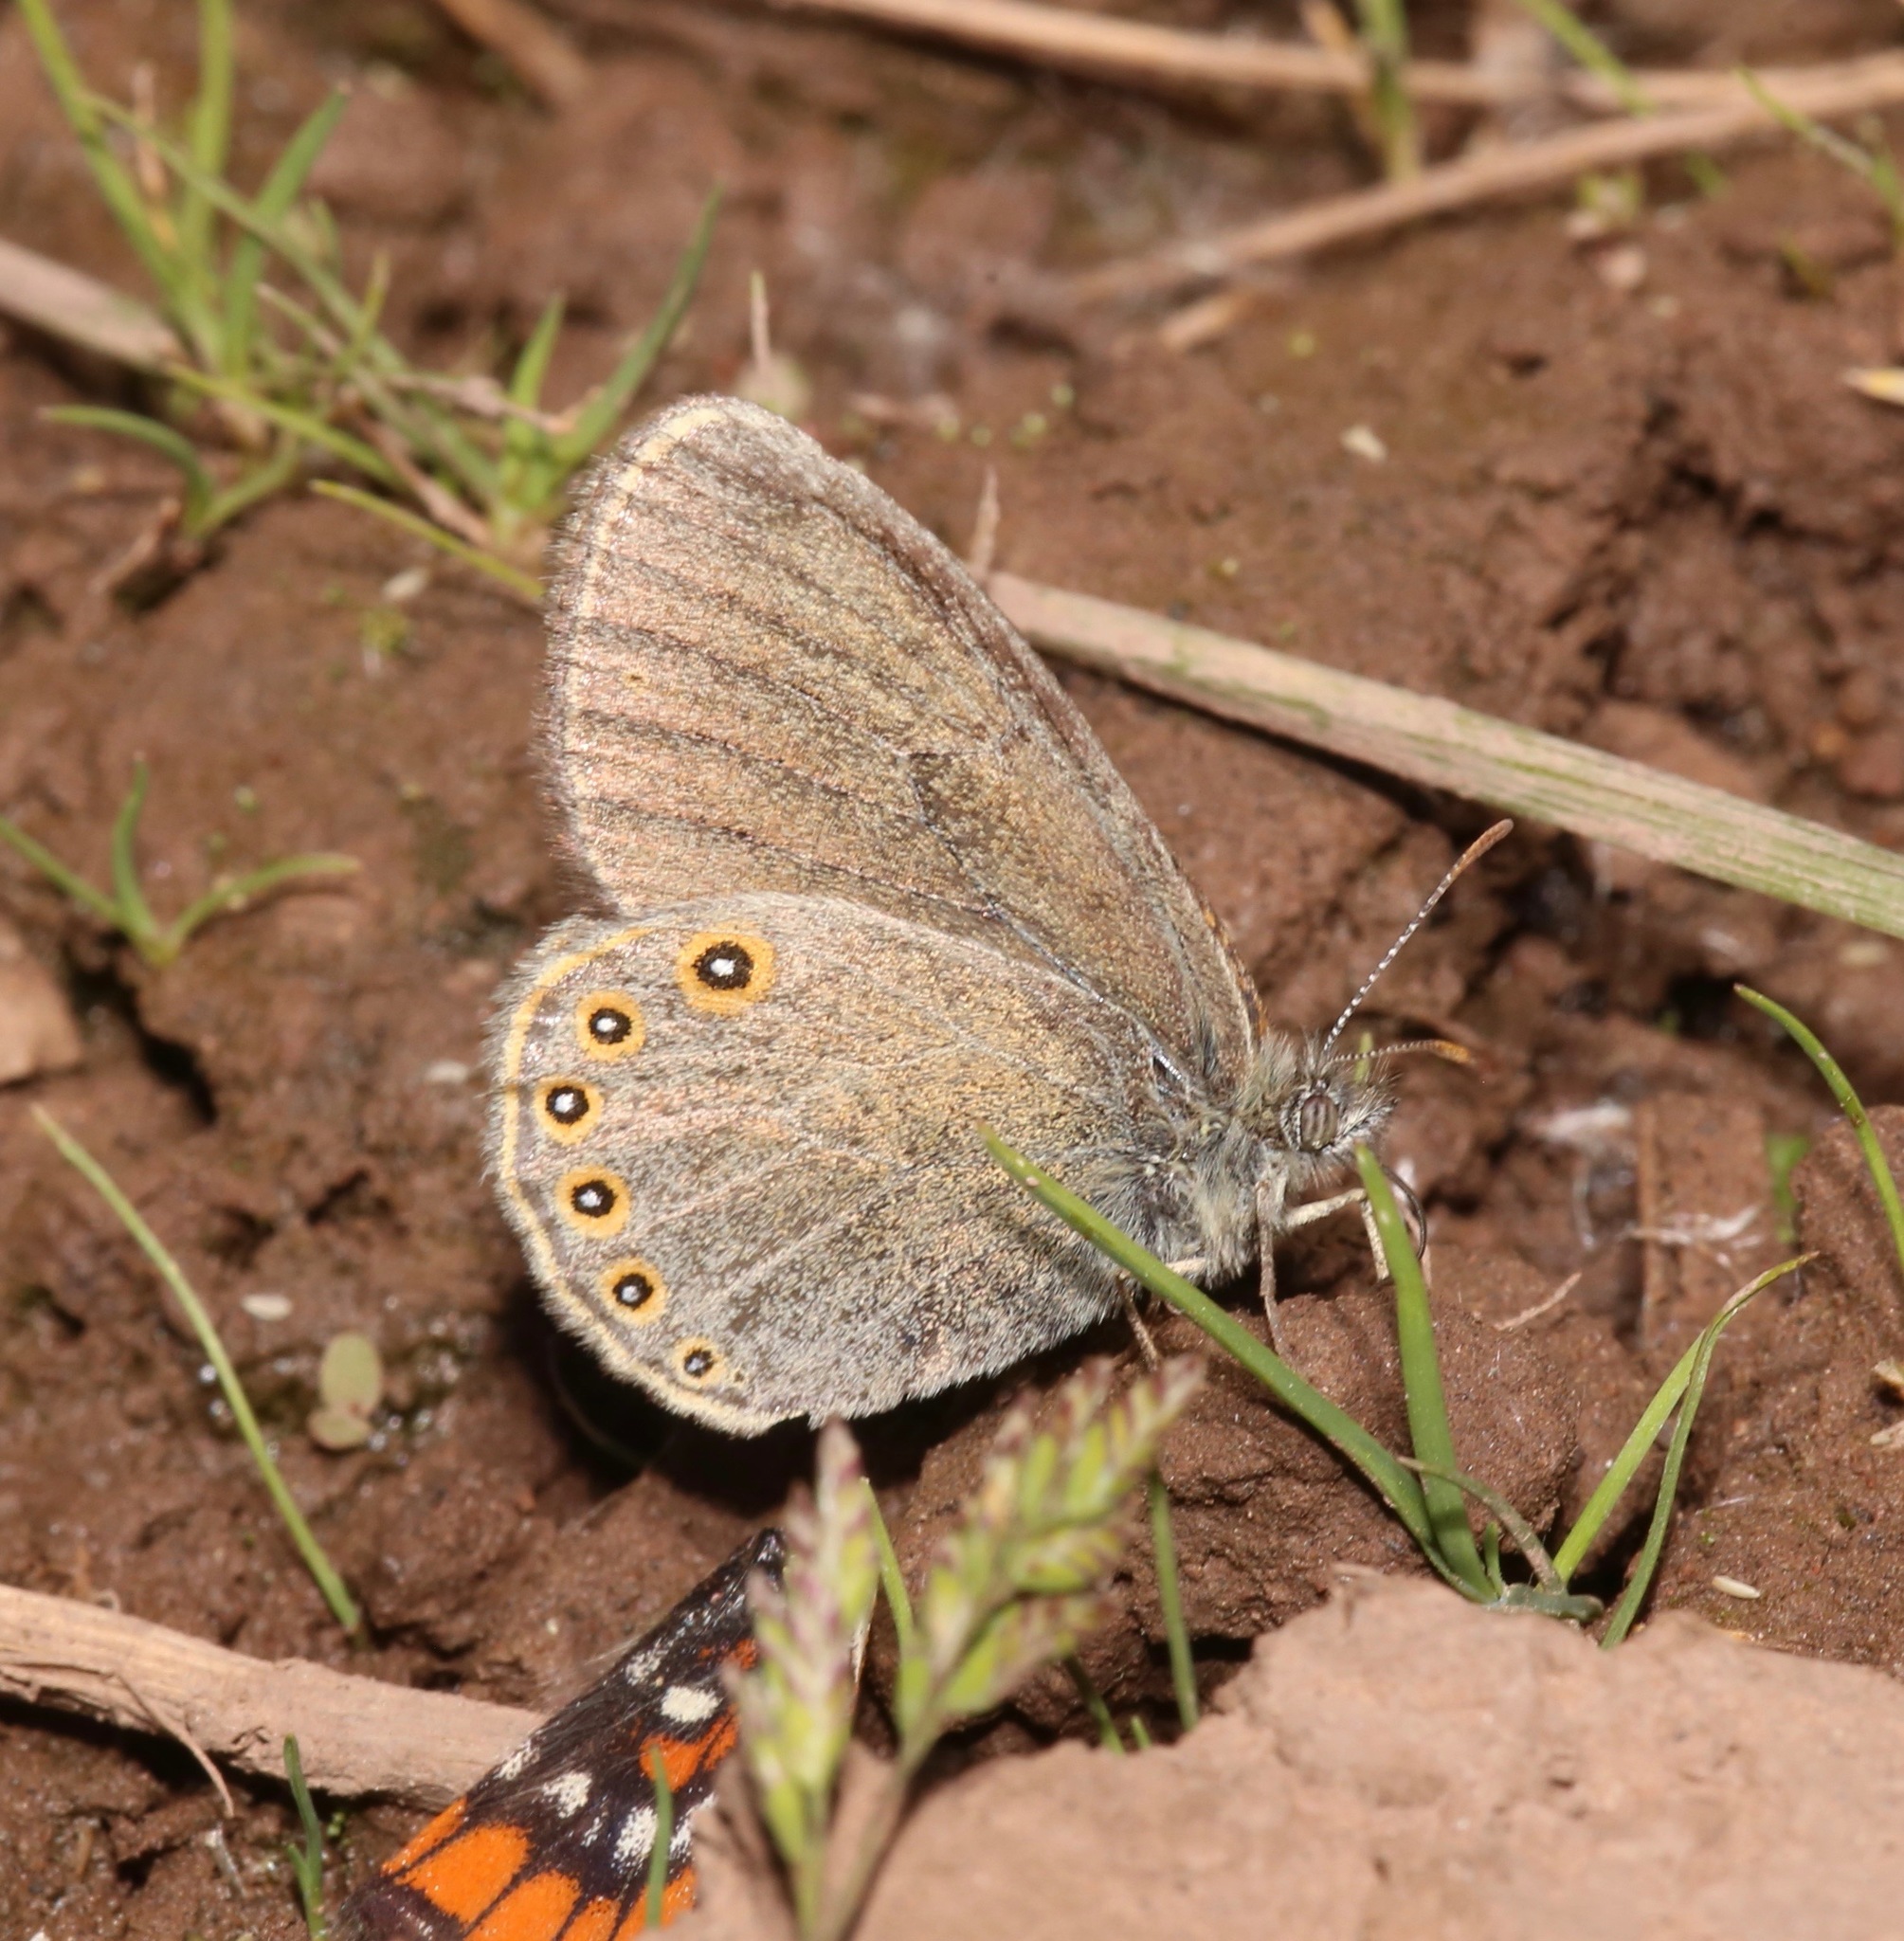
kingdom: Animalia
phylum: Arthropoda
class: Insecta
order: Lepidoptera
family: Nymphalidae
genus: Coenonympha
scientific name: Coenonympha haydeni
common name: Hayden's ringlet
